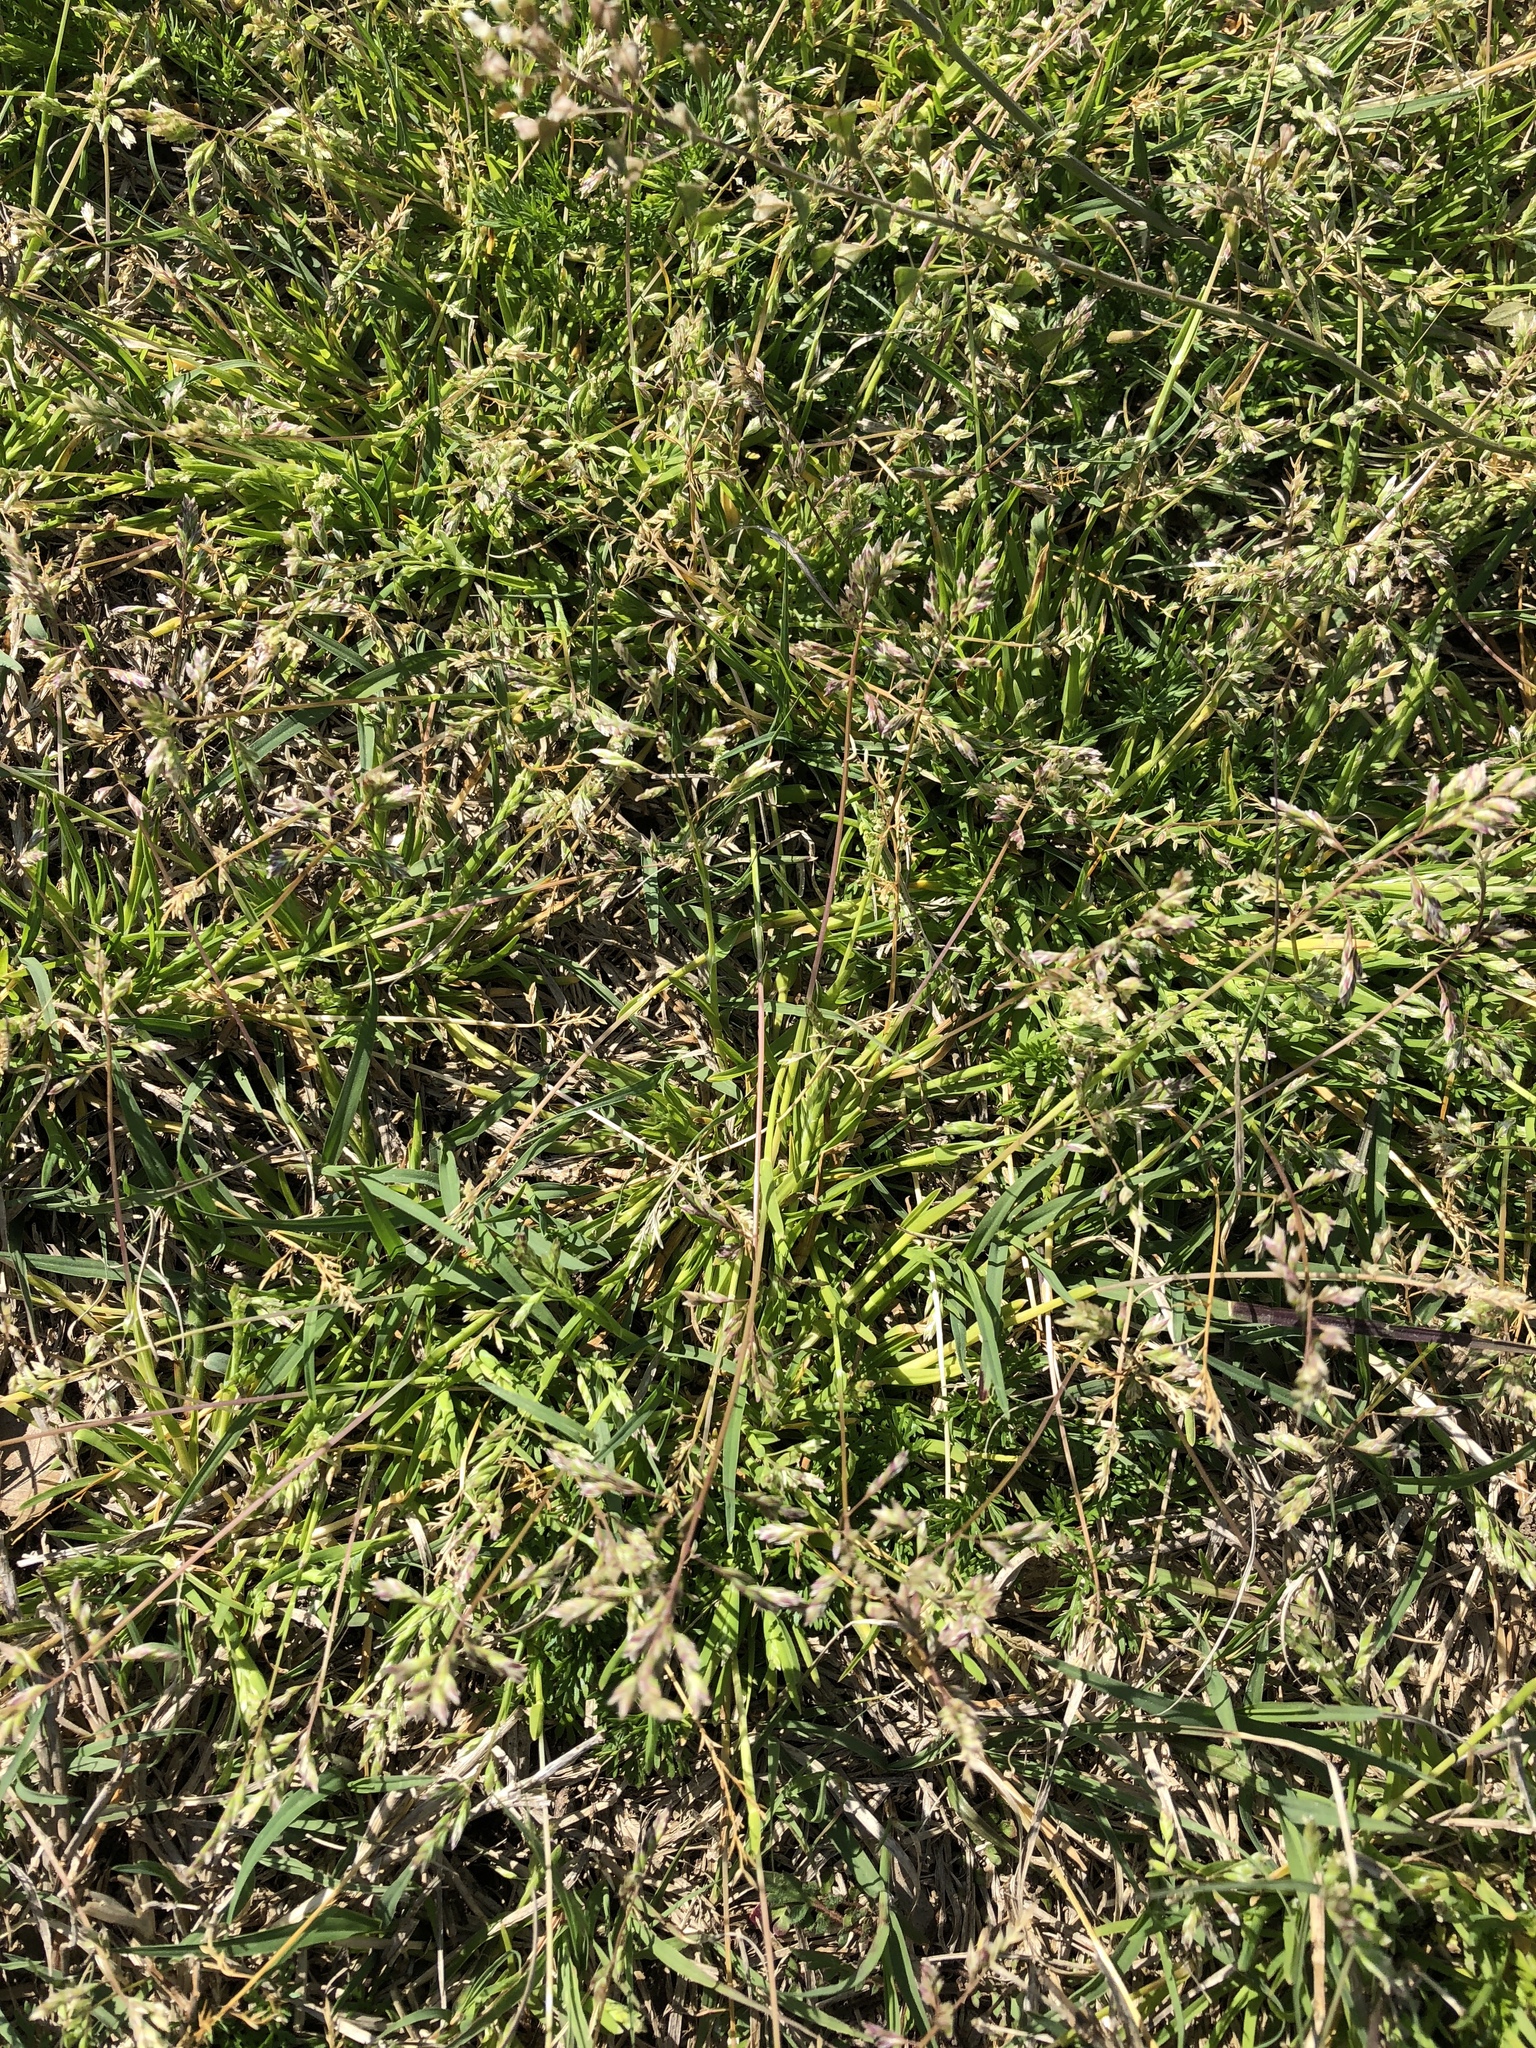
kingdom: Plantae
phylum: Tracheophyta
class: Liliopsida
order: Poales
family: Poaceae
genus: Poa
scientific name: Poa annua
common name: Annual bluegrass
